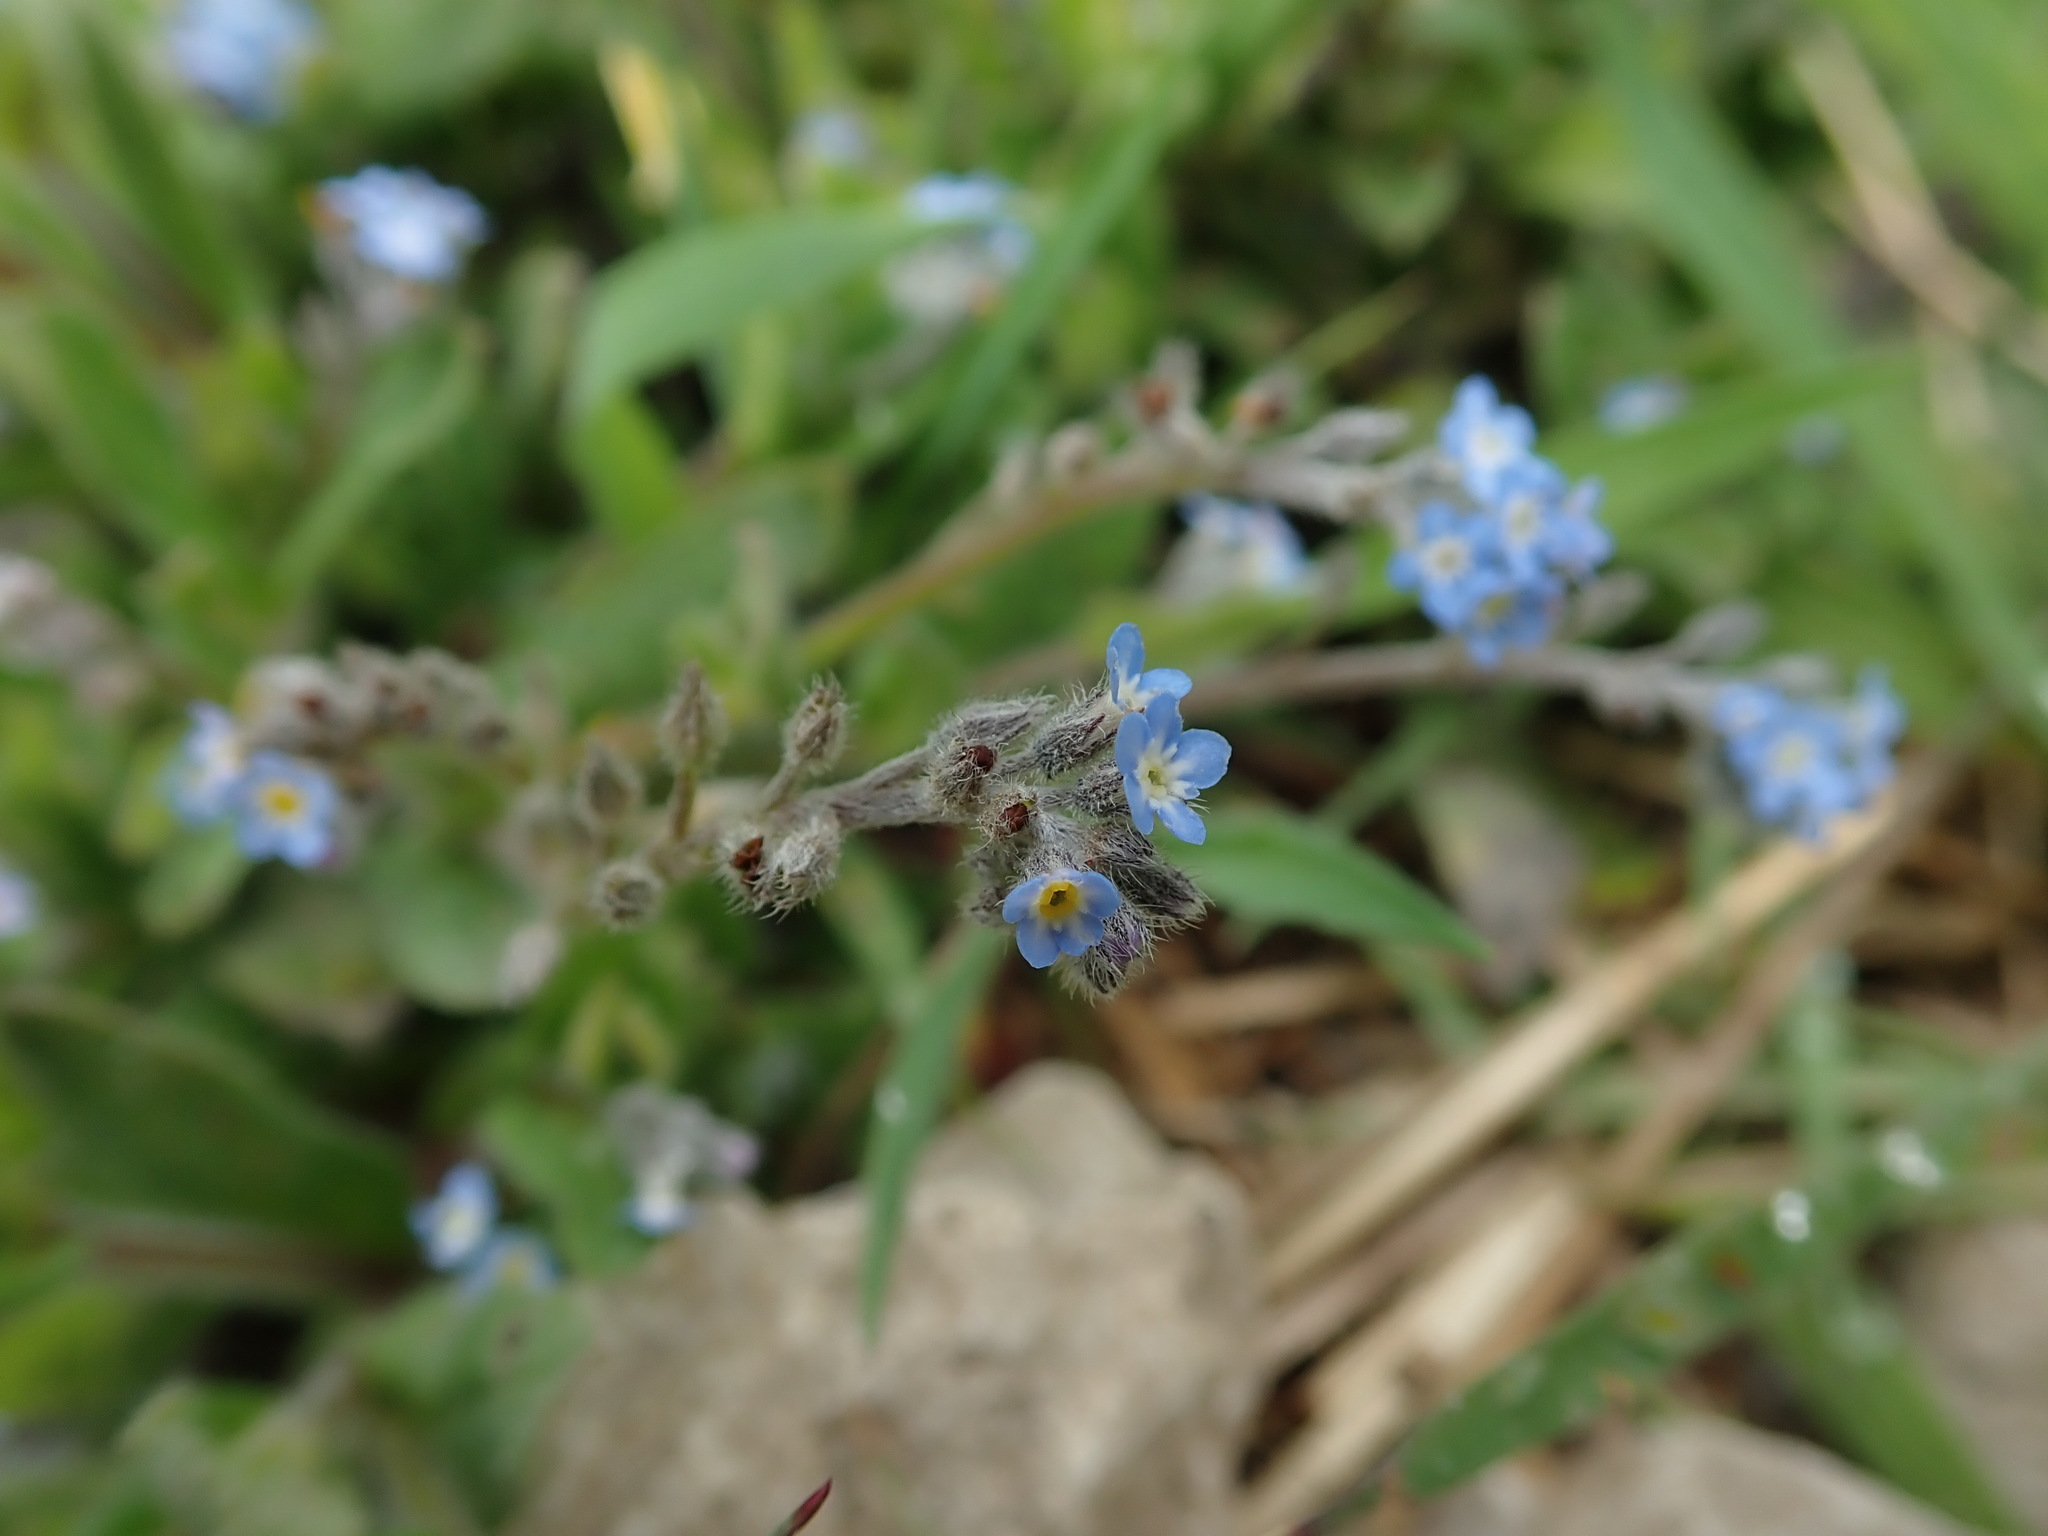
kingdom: Plantae
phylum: Tracheophyta
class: Magnoliopsida
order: Boraginales
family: Boraginaceae
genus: Myosotis
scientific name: Myosotis arvensis
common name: Field forget-me-not
